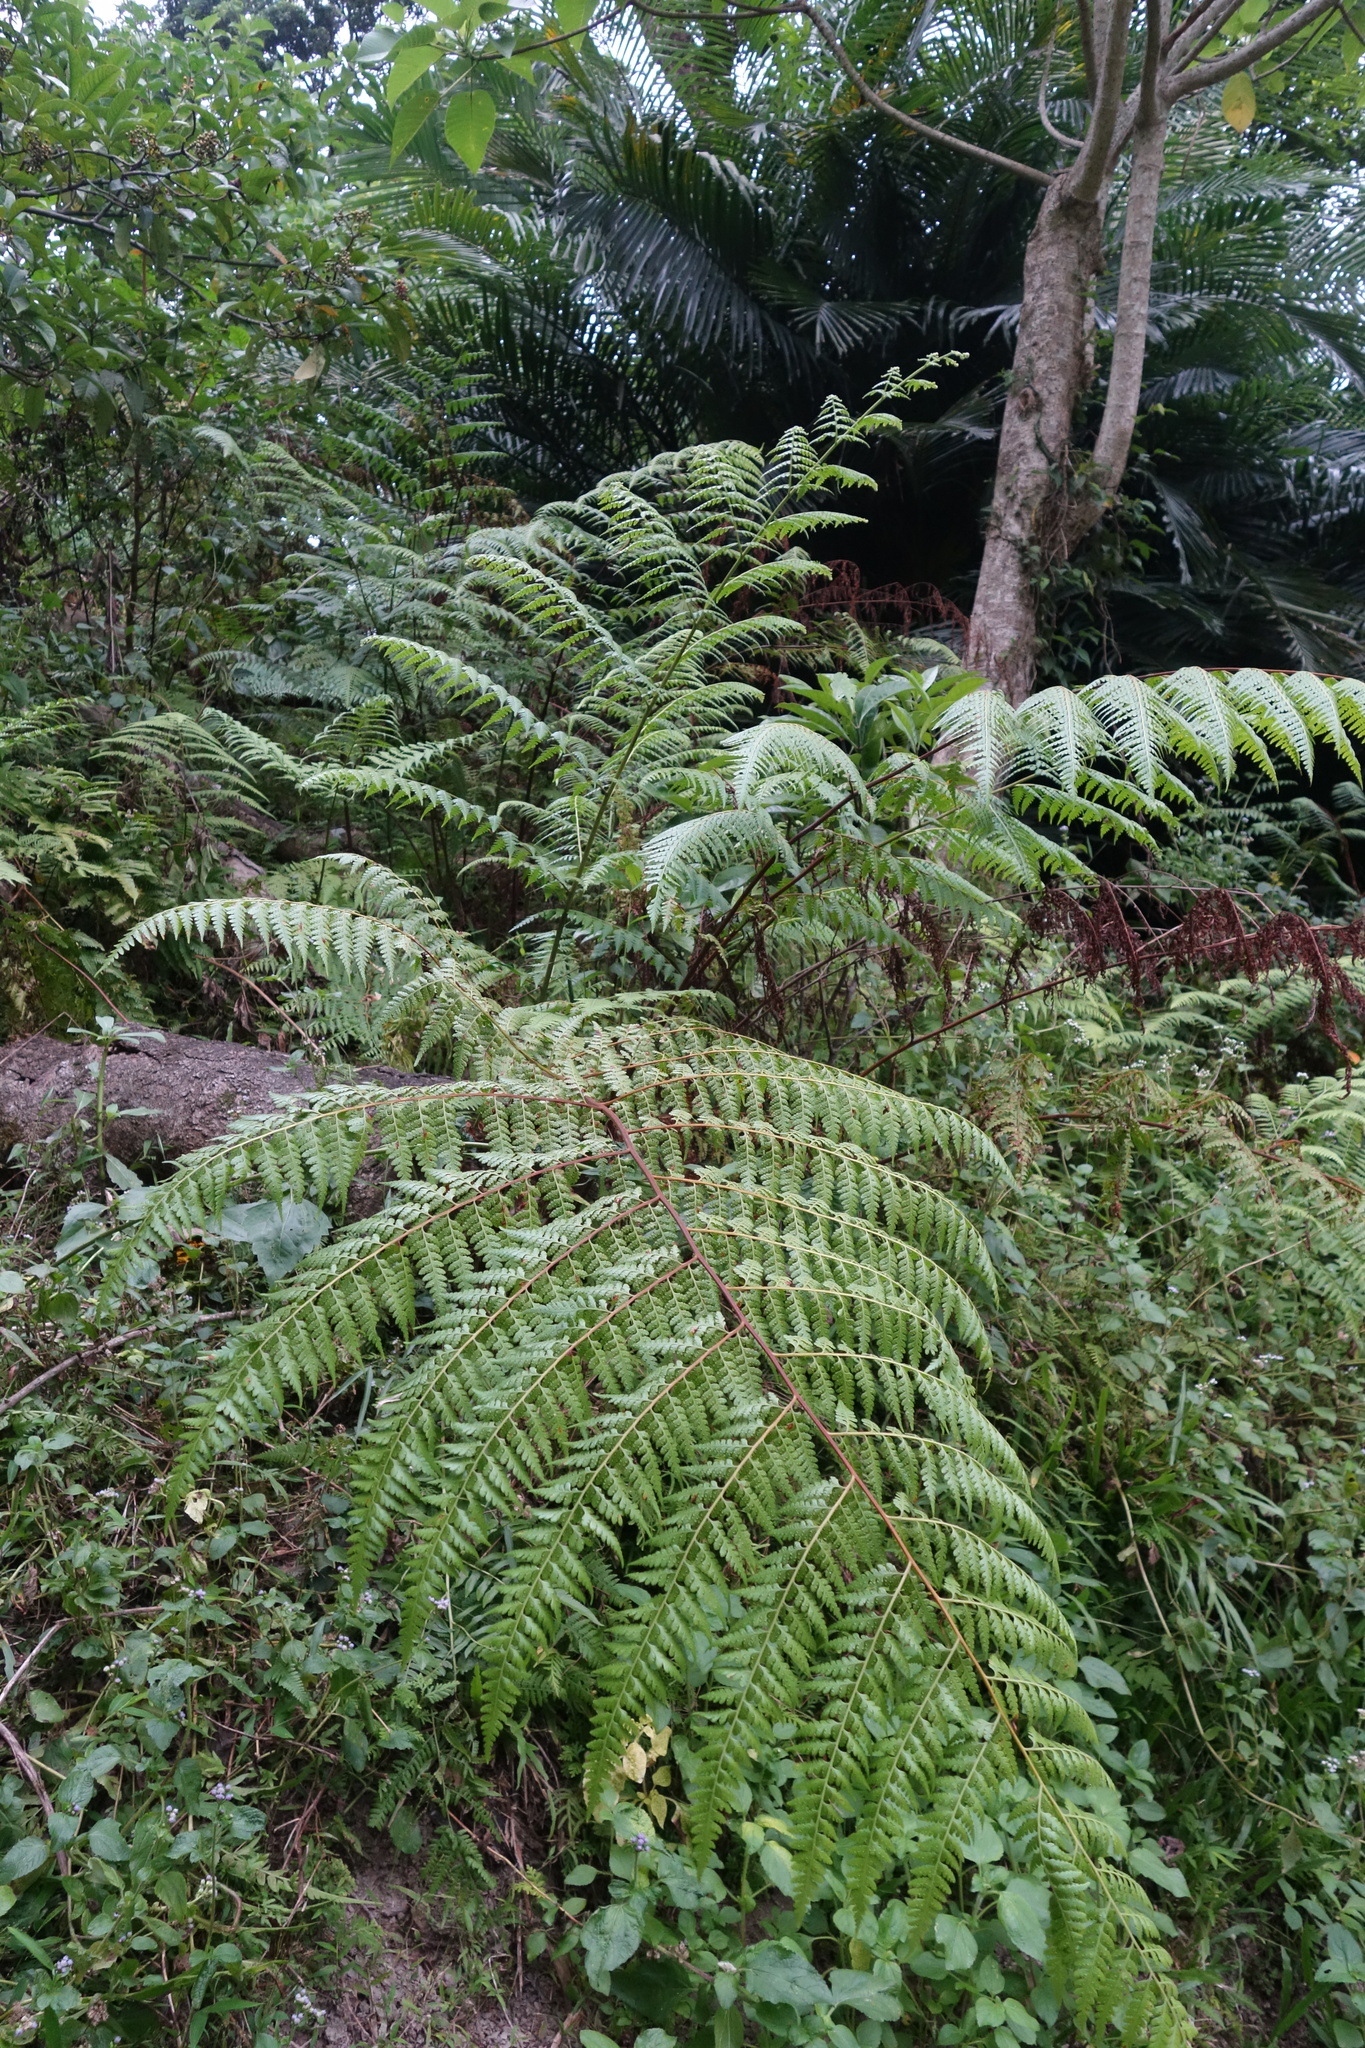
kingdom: Plantae
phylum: Tracheophyta
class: Polypodiopsida
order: Polypodiales
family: Dennstaedtiaceae
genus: Microlepia
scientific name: Microlepia nepalensis
